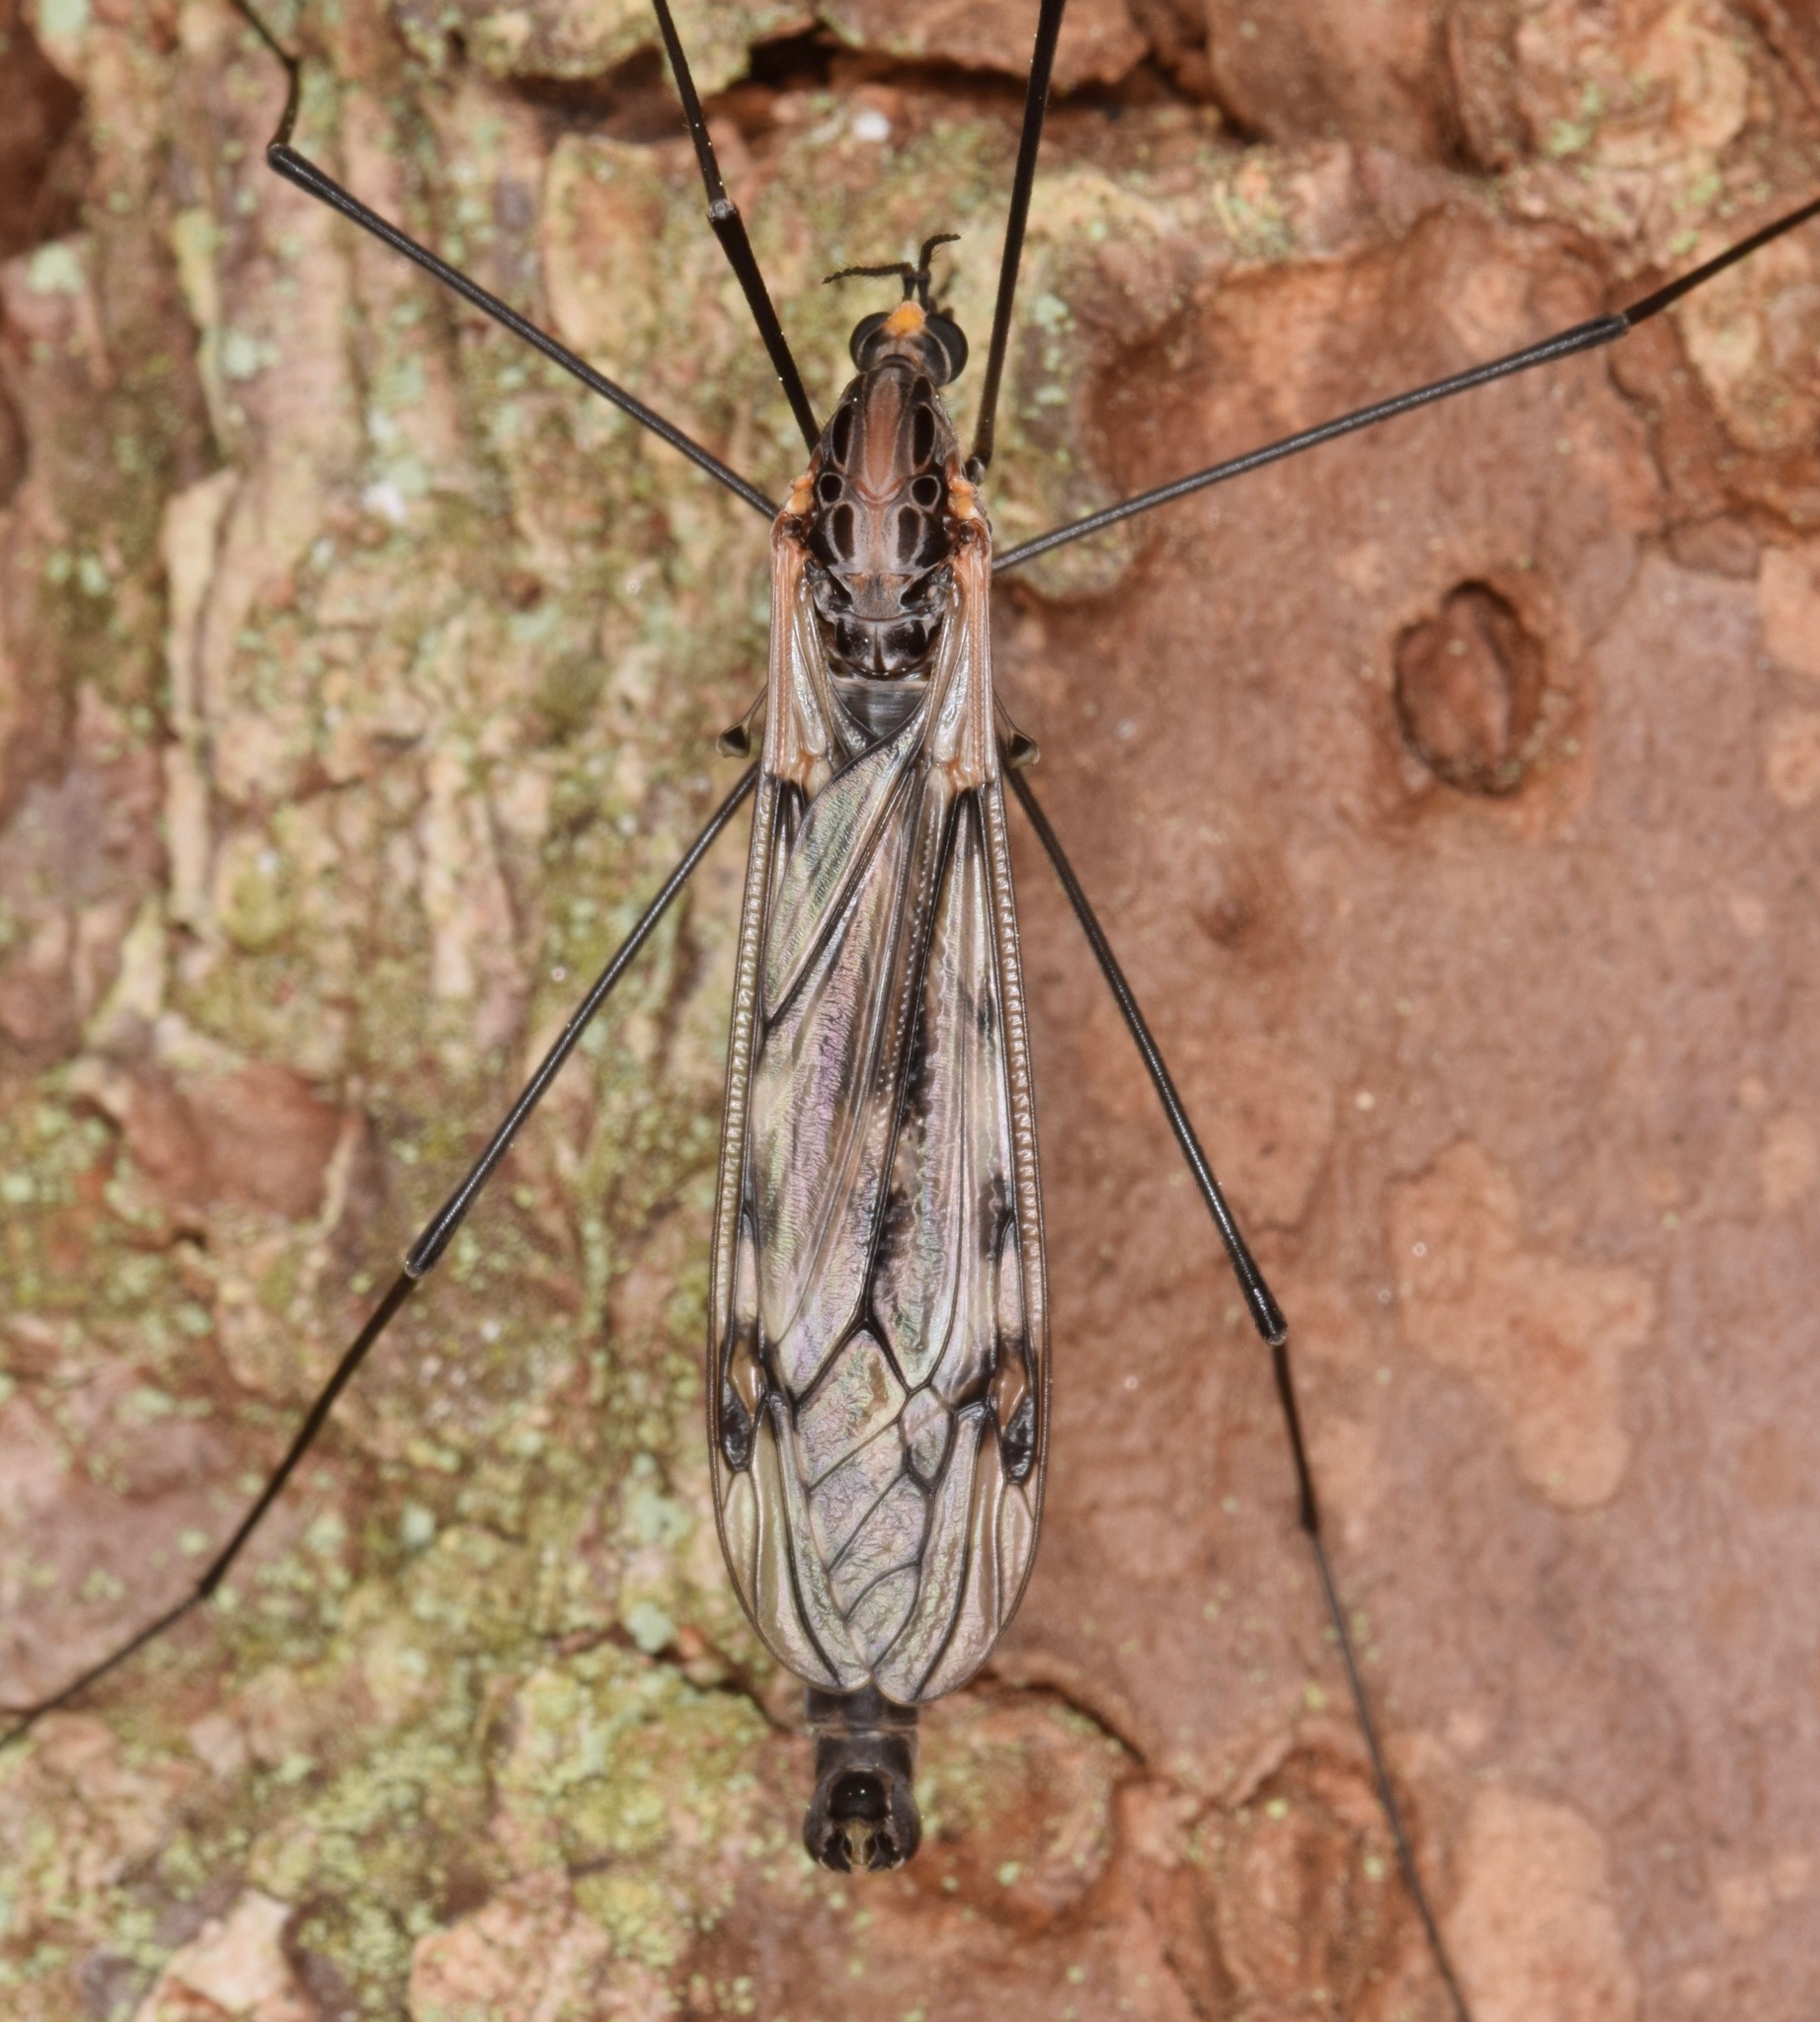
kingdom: Animalia
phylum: Arthropoda
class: Insecta
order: Diptera
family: Tipulidae
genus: Tipula
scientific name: Tipula metacomet
